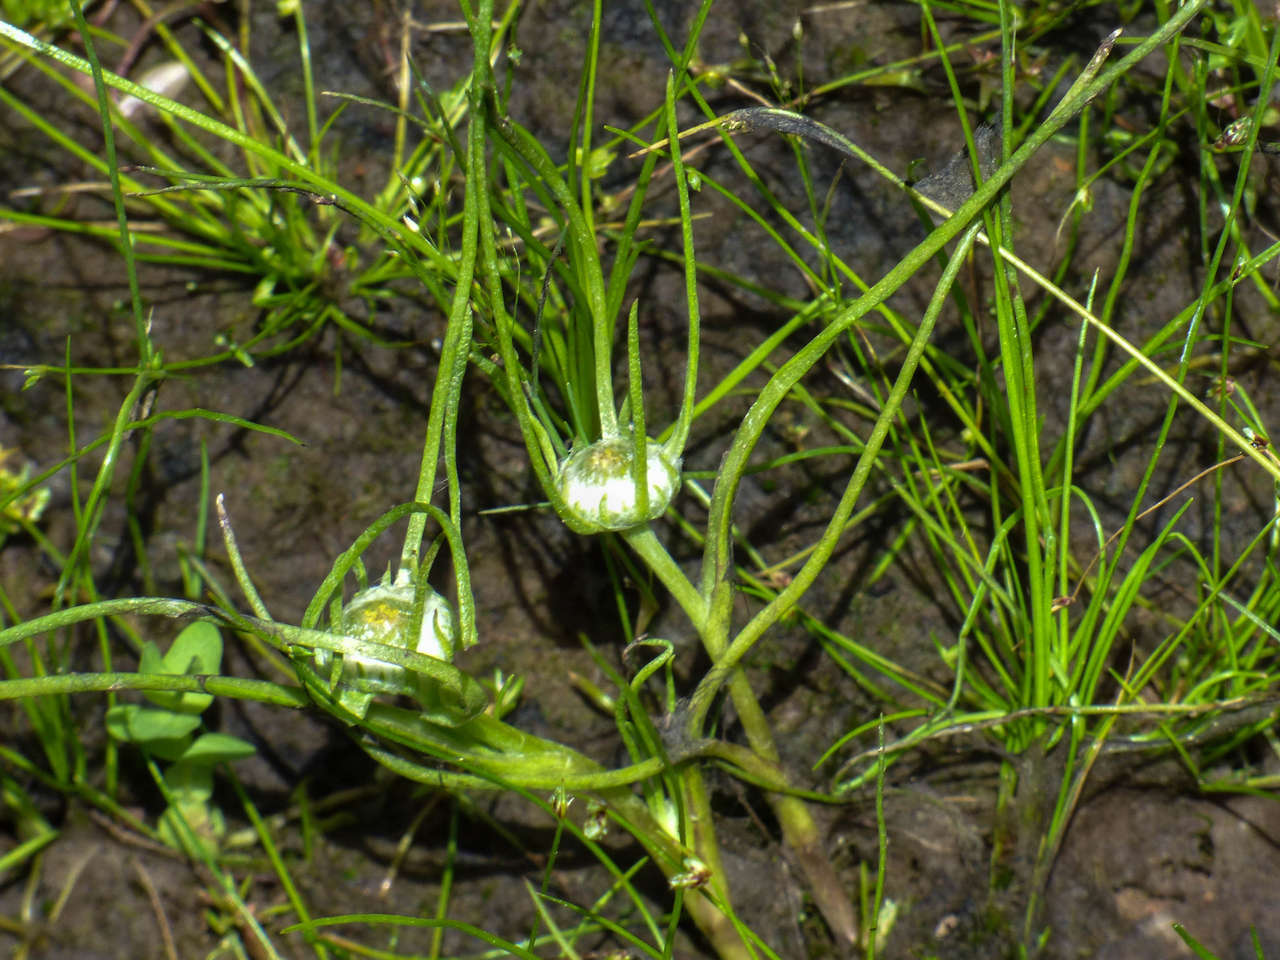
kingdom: Plantae
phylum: Tracheophyta
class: Magnoliopsida
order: Asterales
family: Asteraceae
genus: Myriocephalus
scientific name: Myriocephalus rhizocephalus
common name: Tufted woolly-heads
